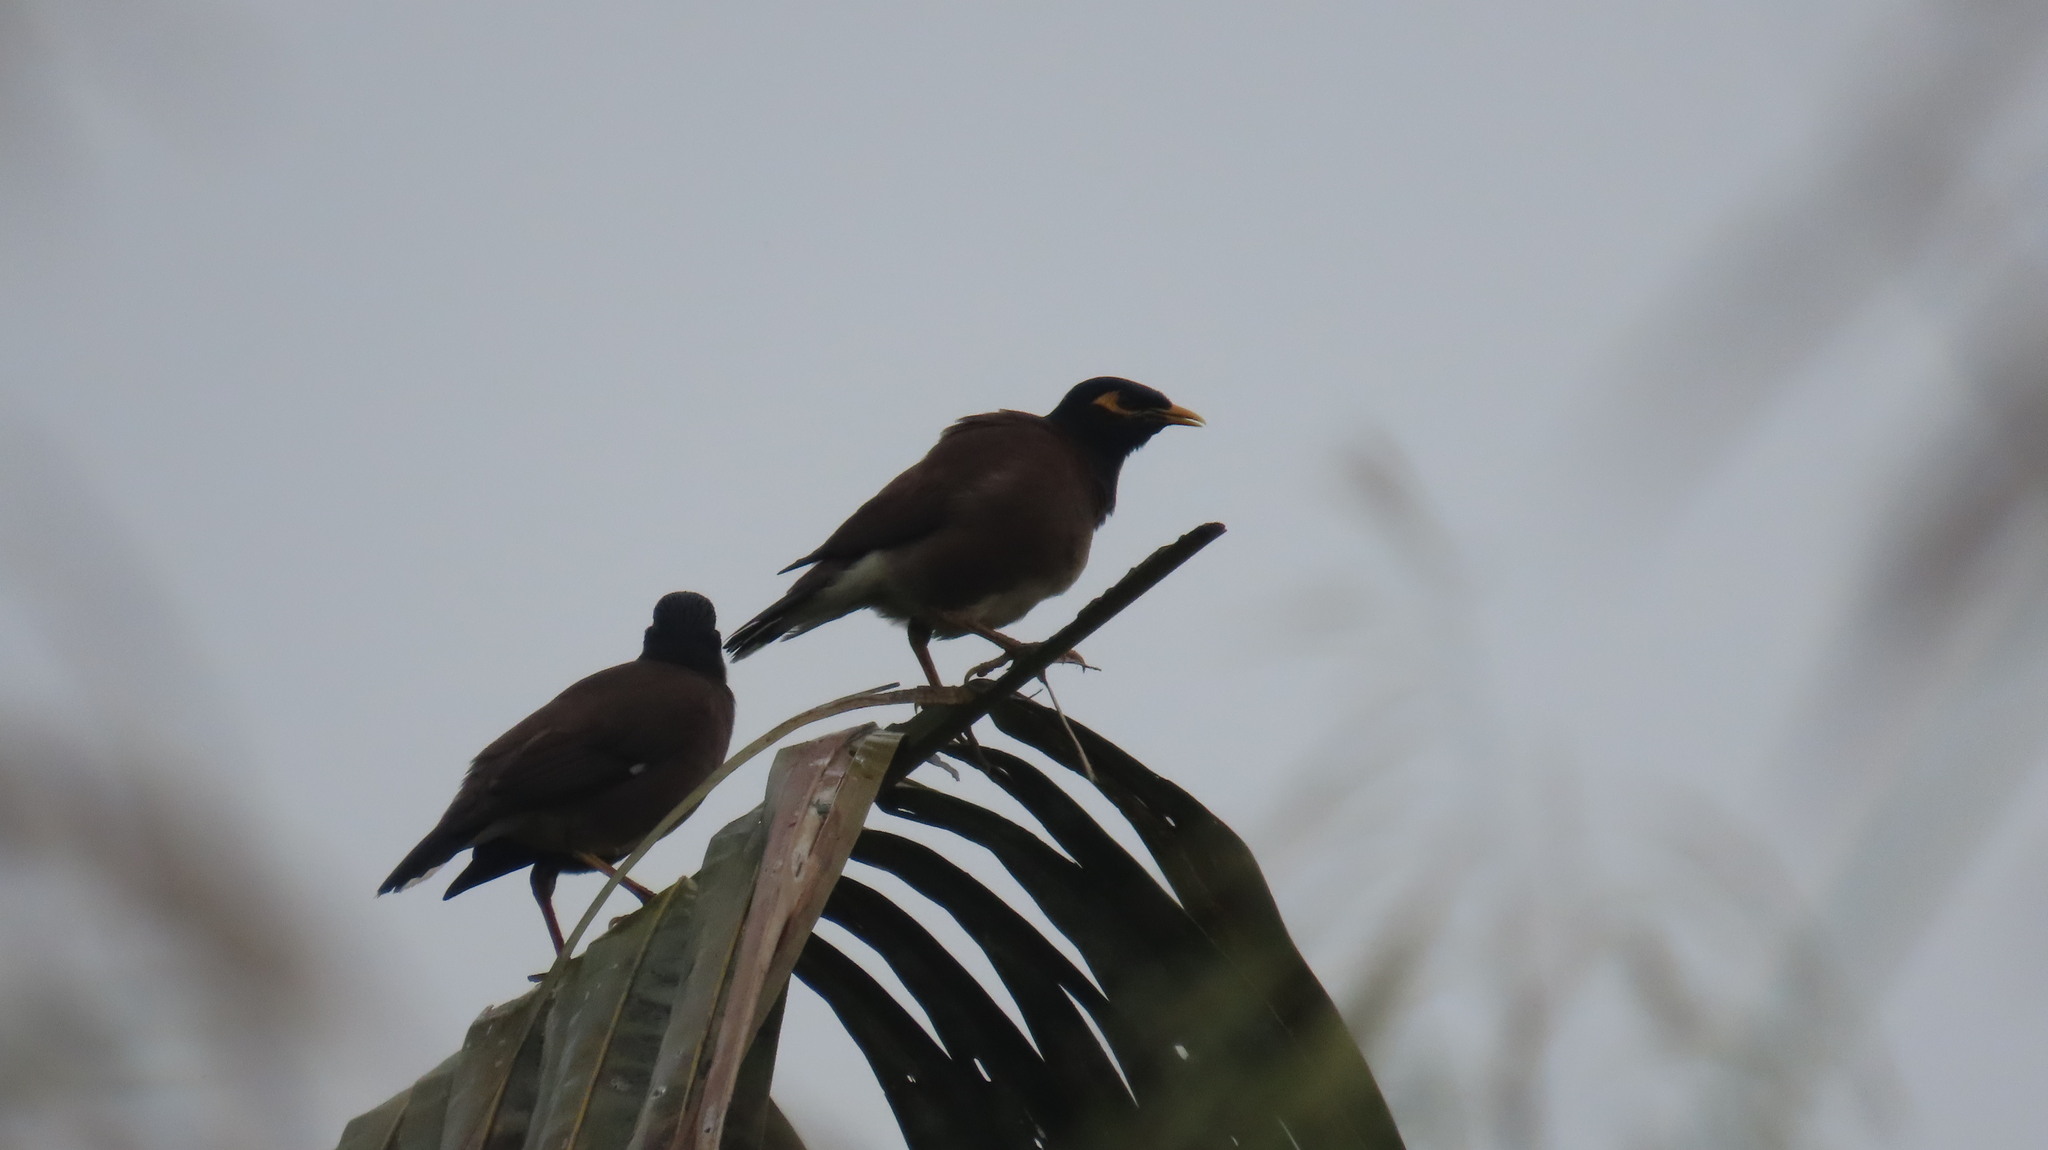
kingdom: Animalia
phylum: Chordata
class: Aves
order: Passeriformes
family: Sturnidae
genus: Acridotheres
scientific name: Acridotheres tristis
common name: Common myna
